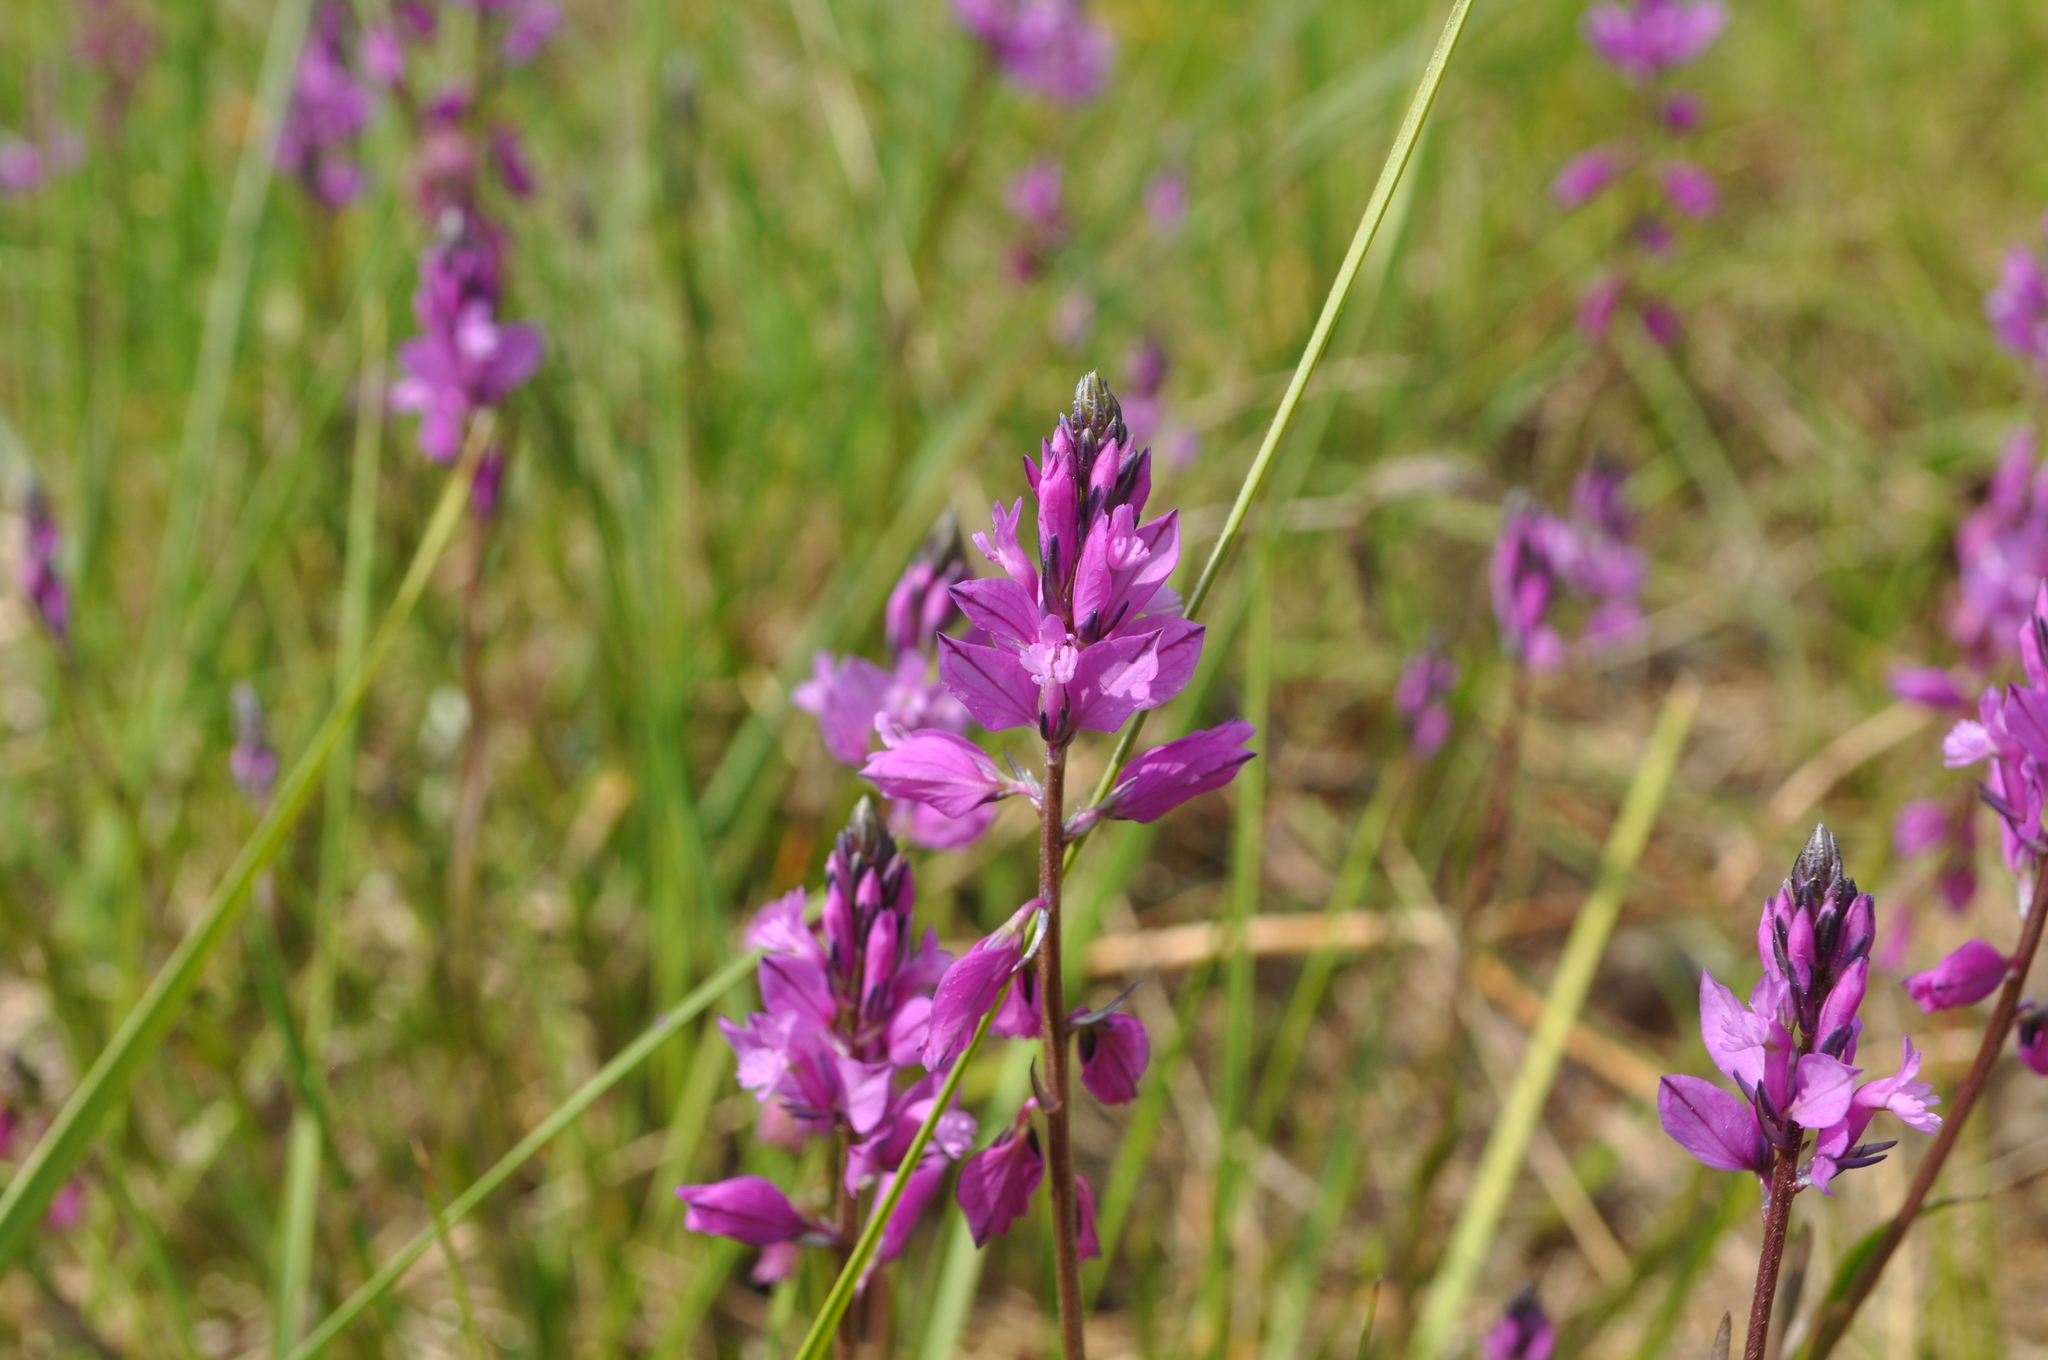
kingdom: Plantae
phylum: Tracheophyta
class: Magnoliopsida
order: Fabales
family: Polygalaceae
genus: Polygala
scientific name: Polygala nicaeensis
